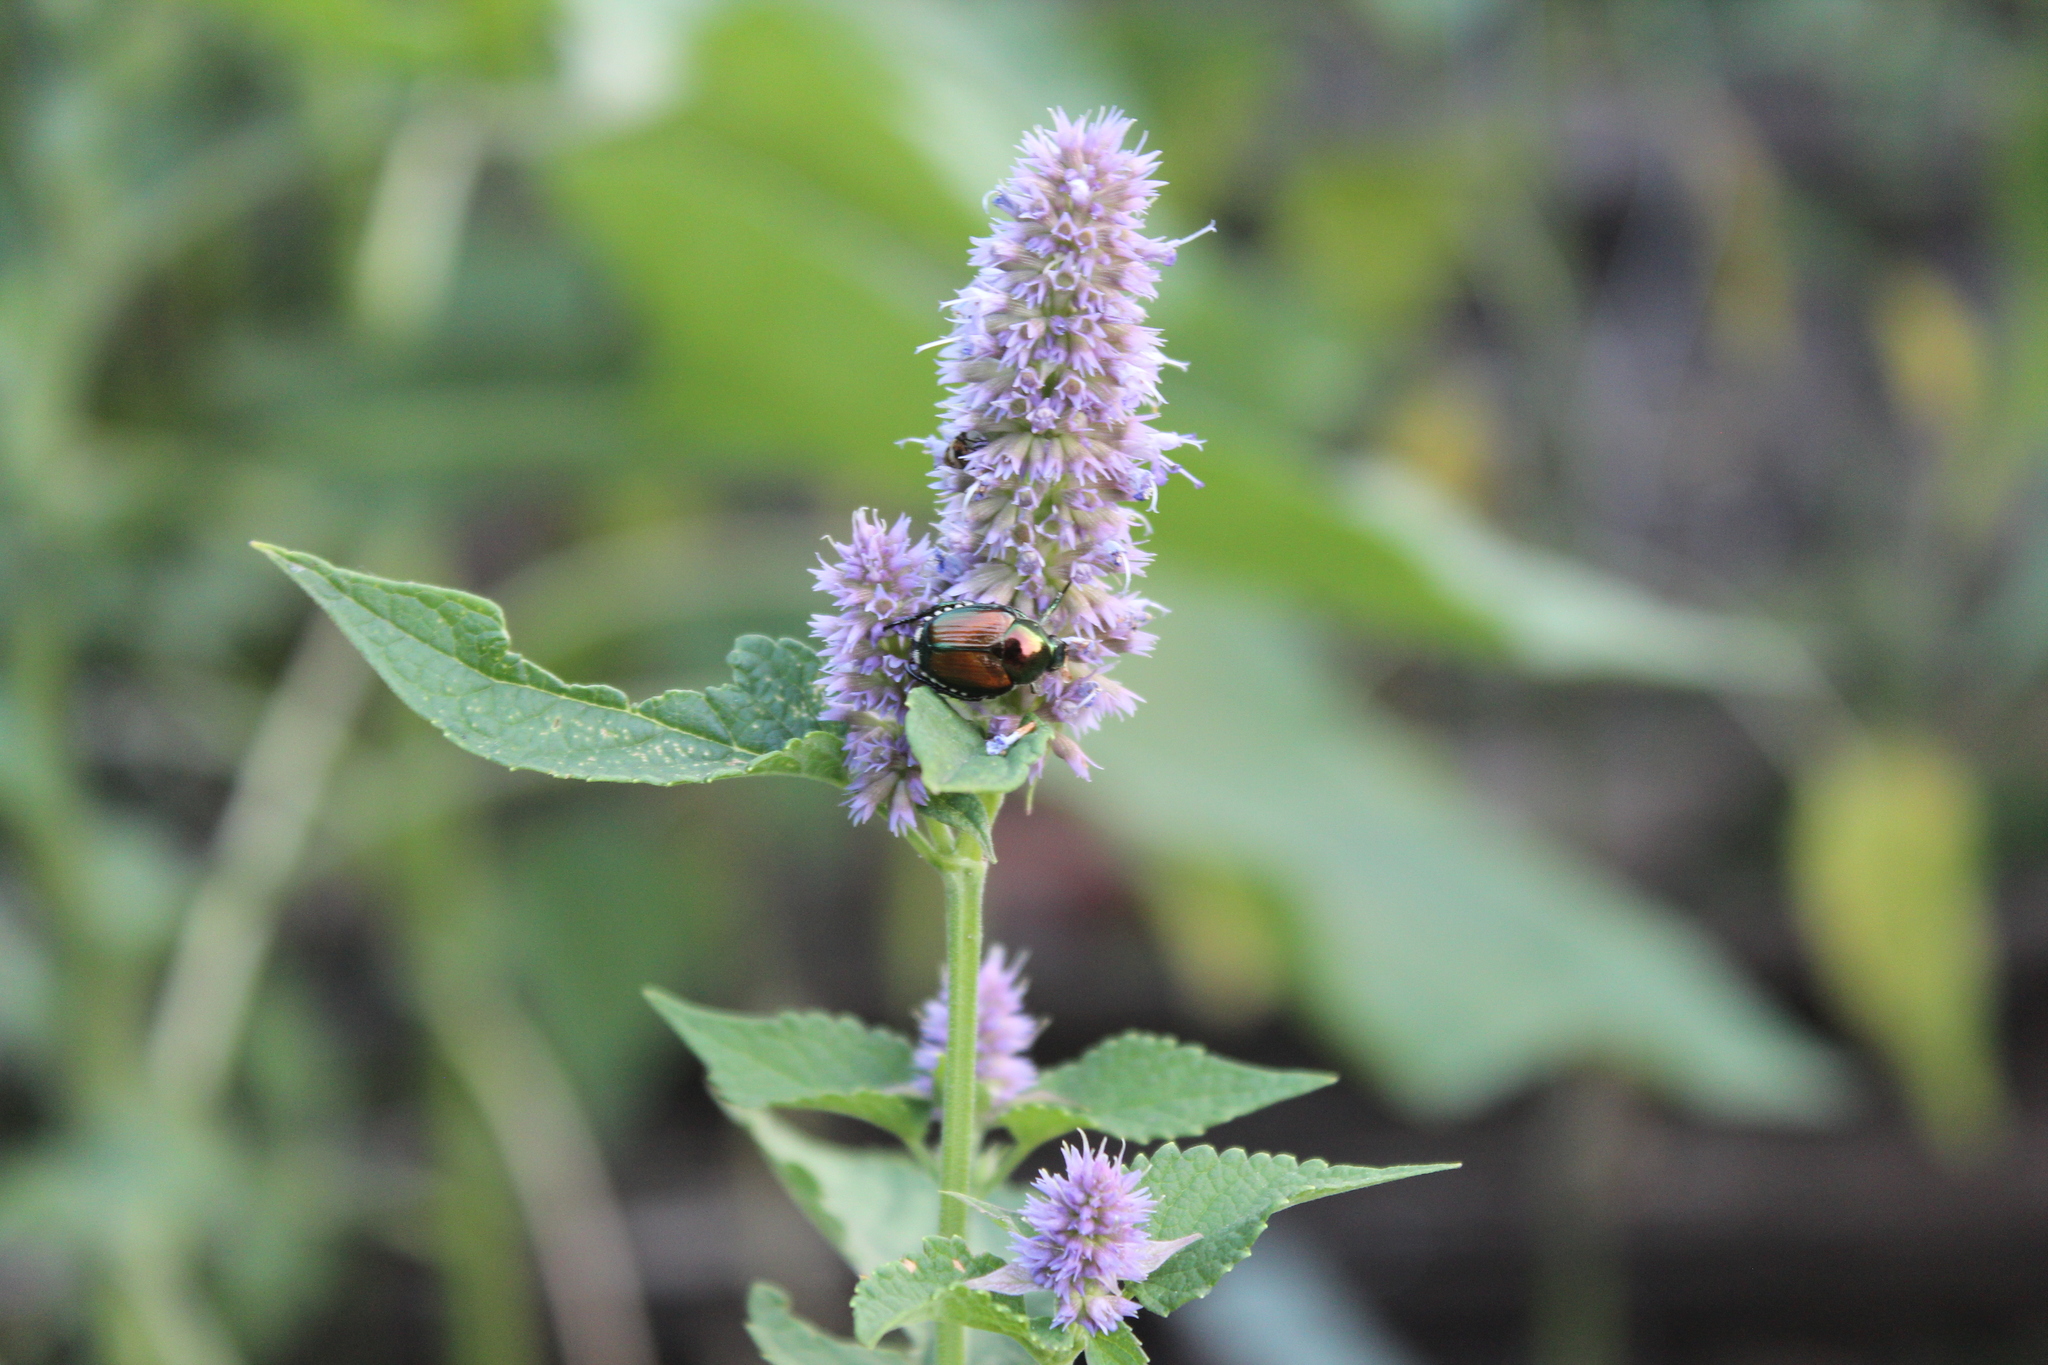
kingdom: Animalia
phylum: Arthropoda
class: Insecta
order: Coleoptera
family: Scarabaeidae
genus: Popillia
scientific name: Popillia japonica
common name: Japanese beetle
